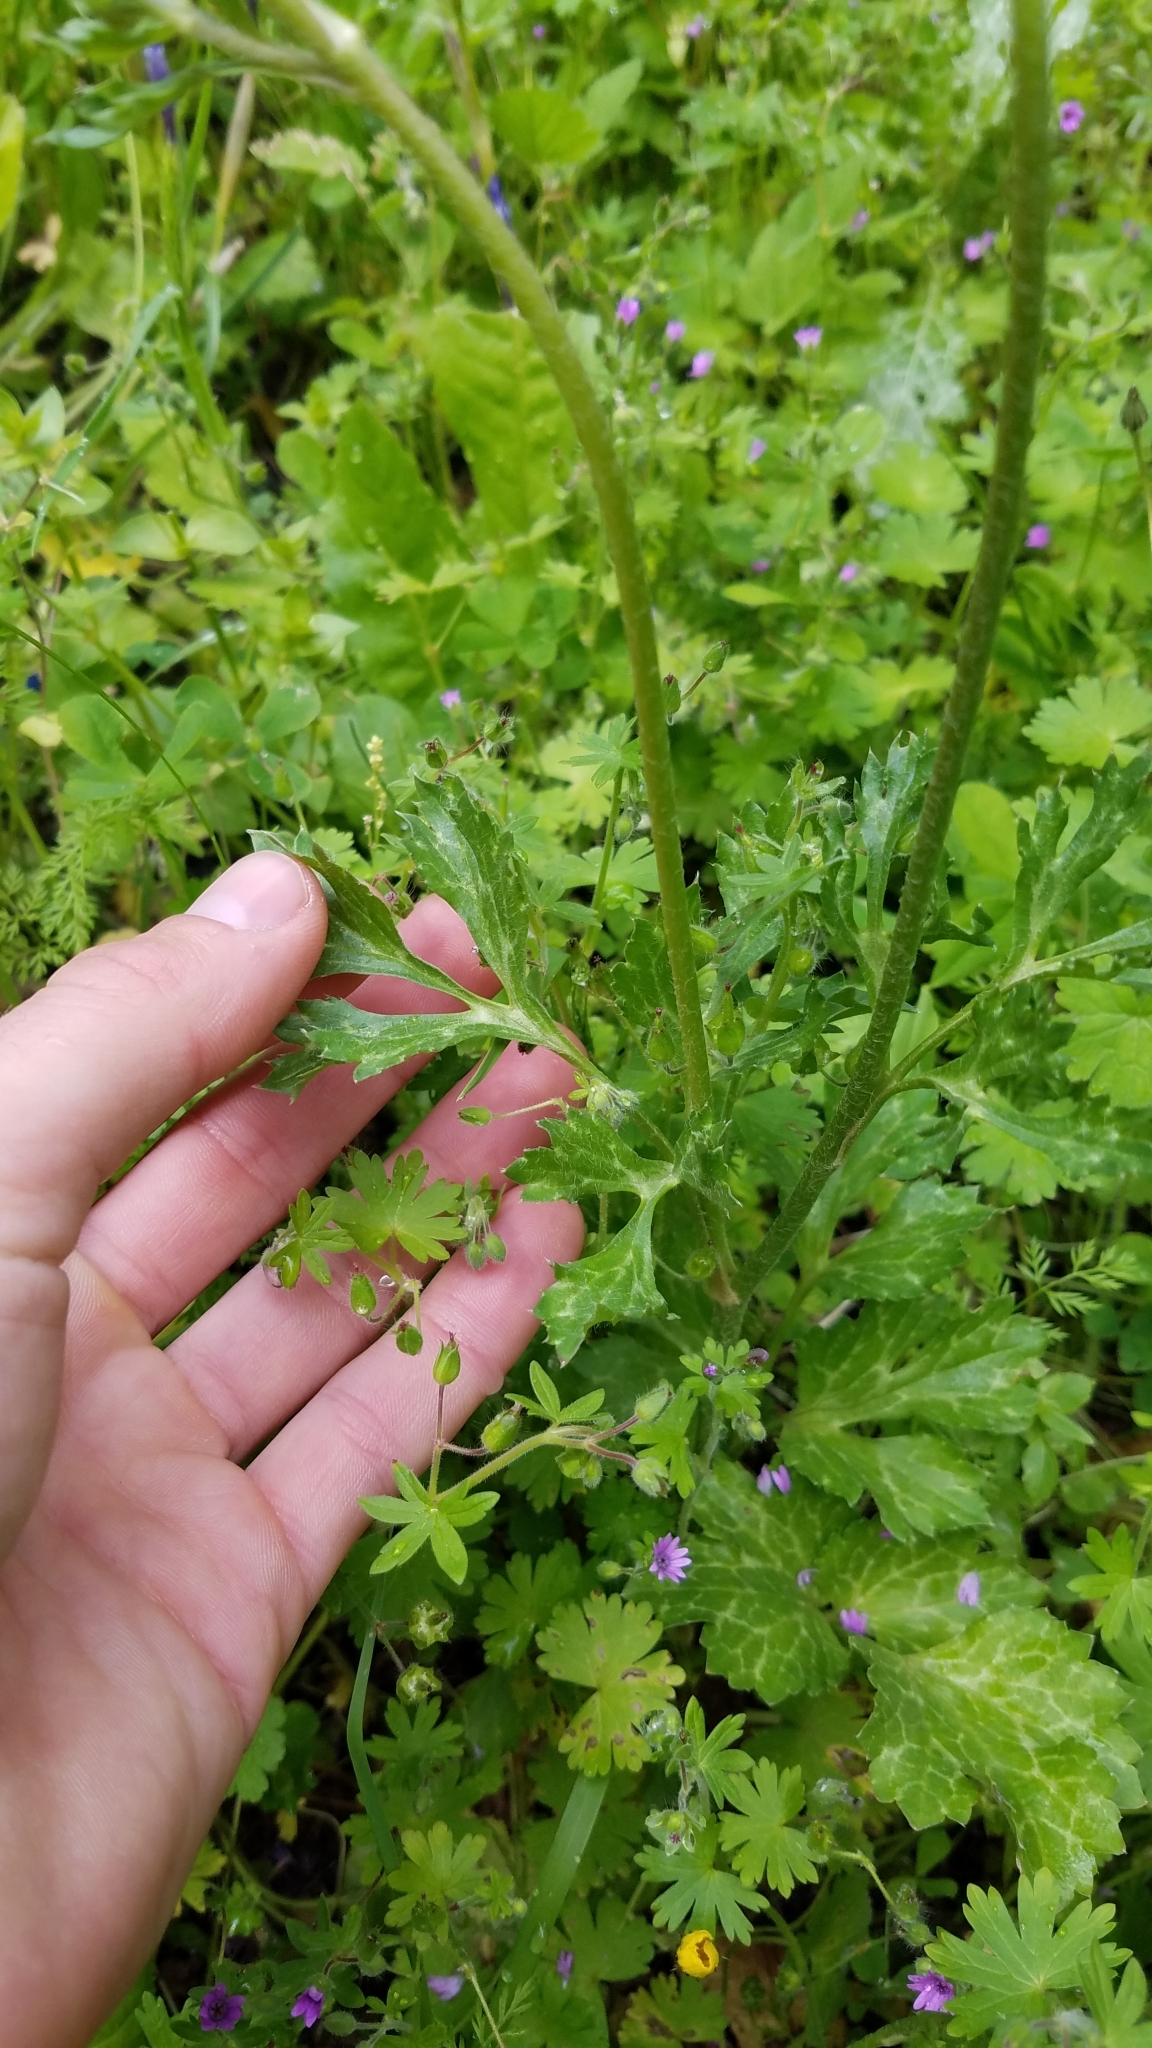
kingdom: Plantae
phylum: Tracheophyta
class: Magnoliopsida
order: Ranunculales
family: Ranunculaceae
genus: Ranunculus
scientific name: Ranunculus asiaticus
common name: Persian buttercup
